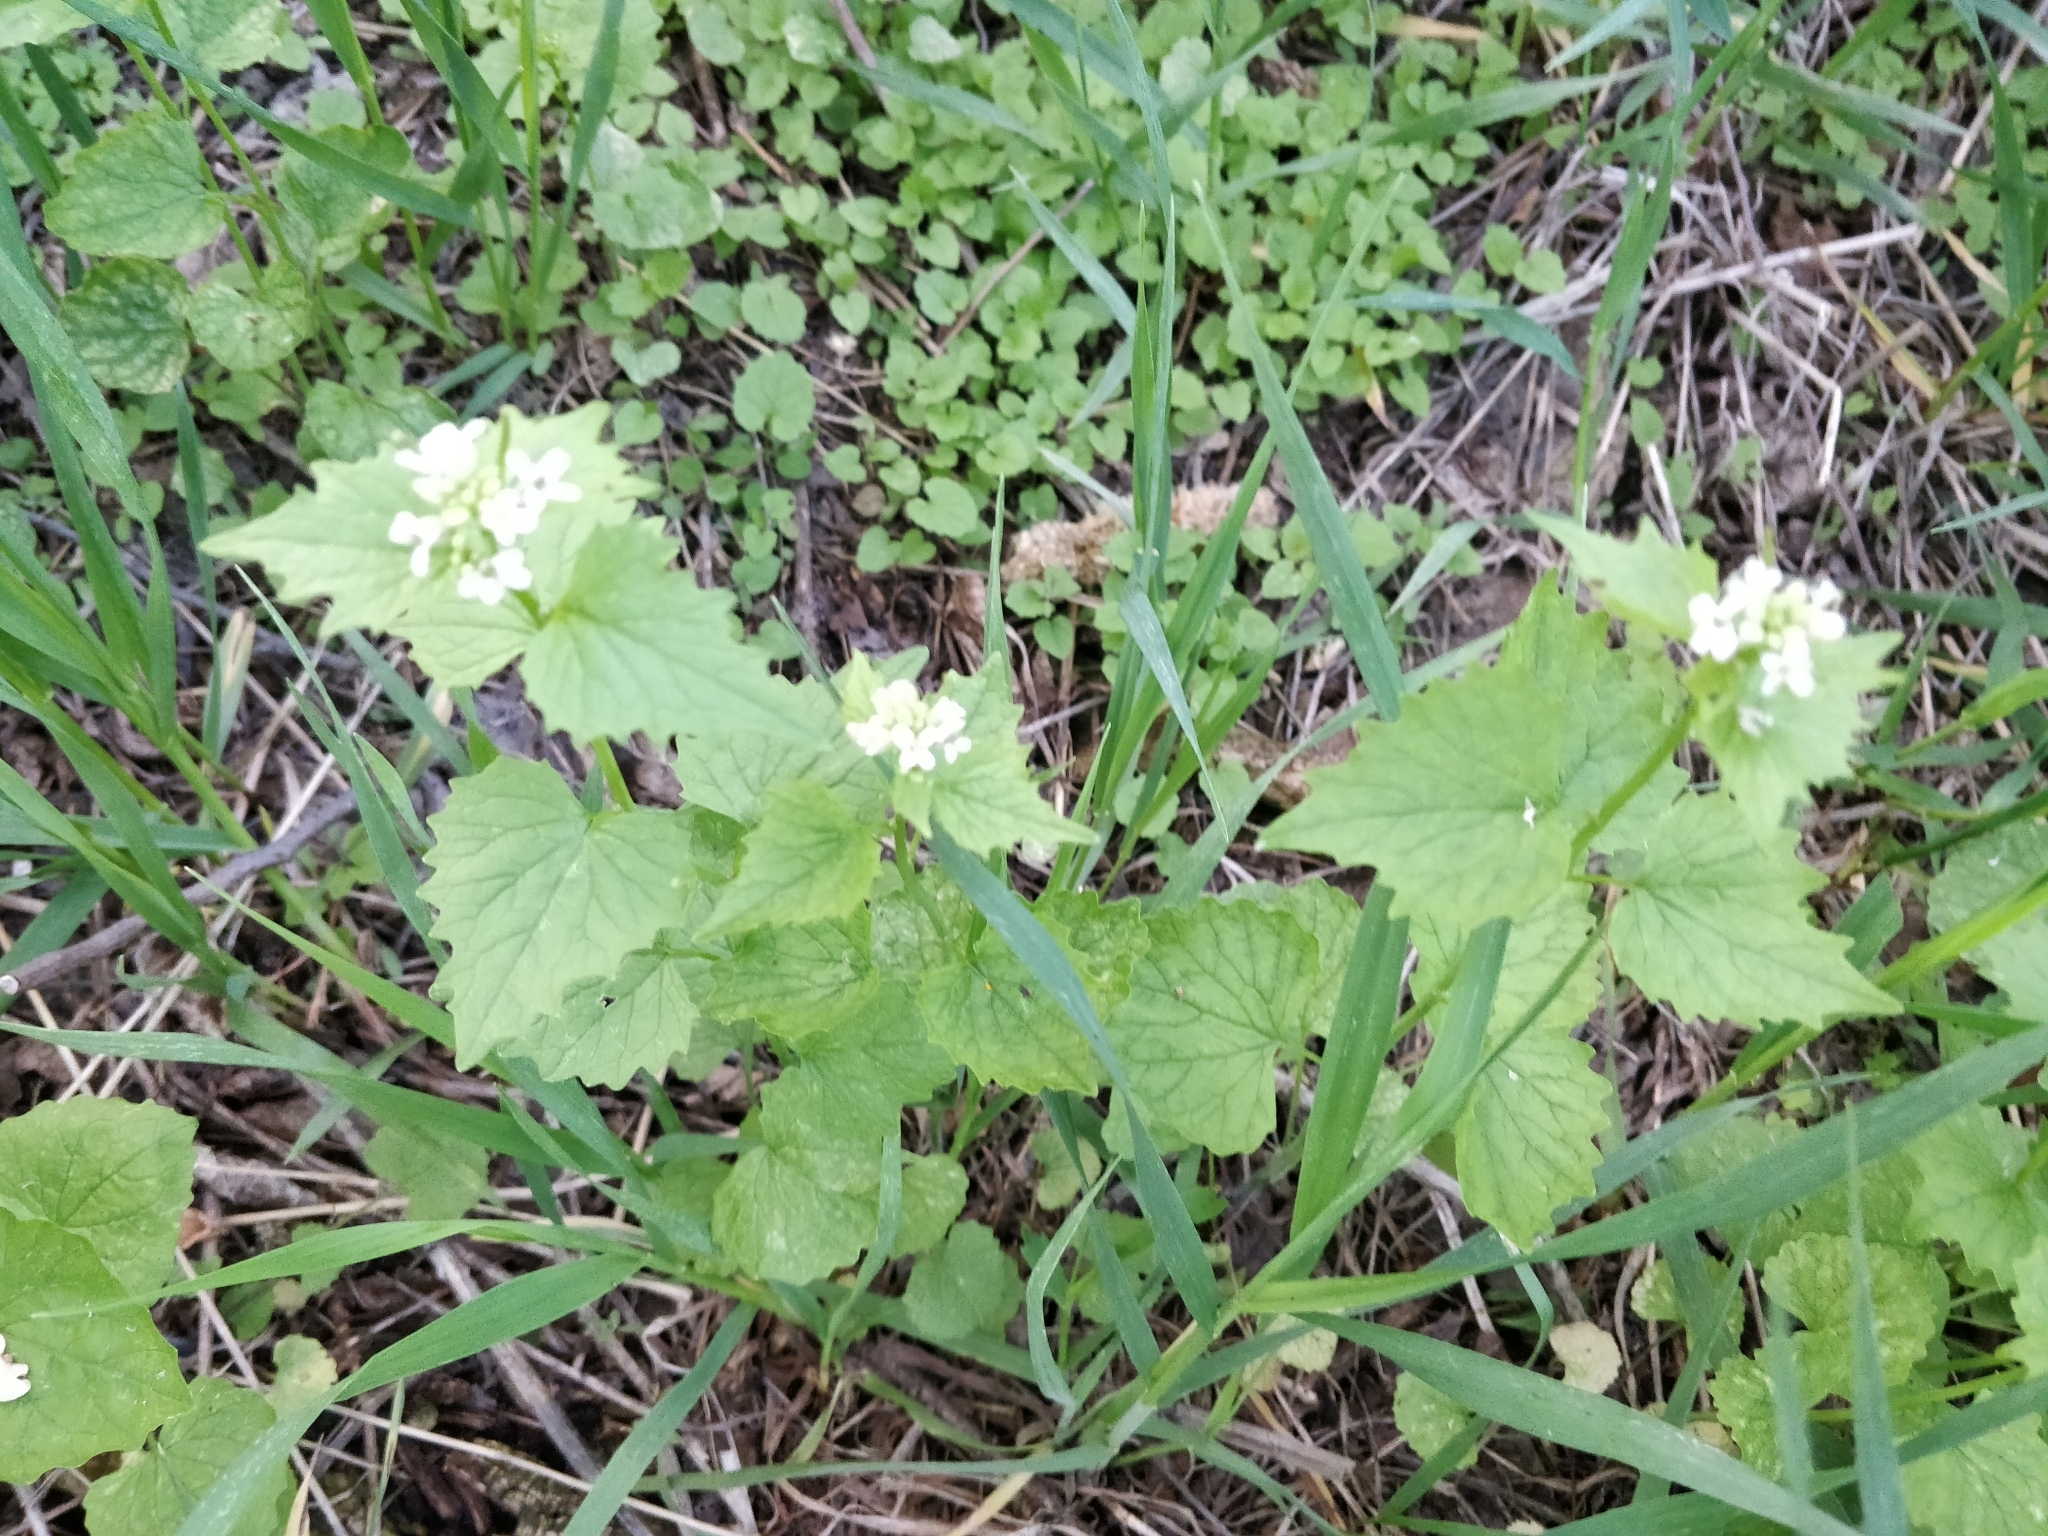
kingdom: Plantae
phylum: Tracheophyta
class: Magnoliopsida
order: Brassicales
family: Brassicaceae
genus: Alliaria
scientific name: Alliaria petiolata
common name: Garlic mustard
